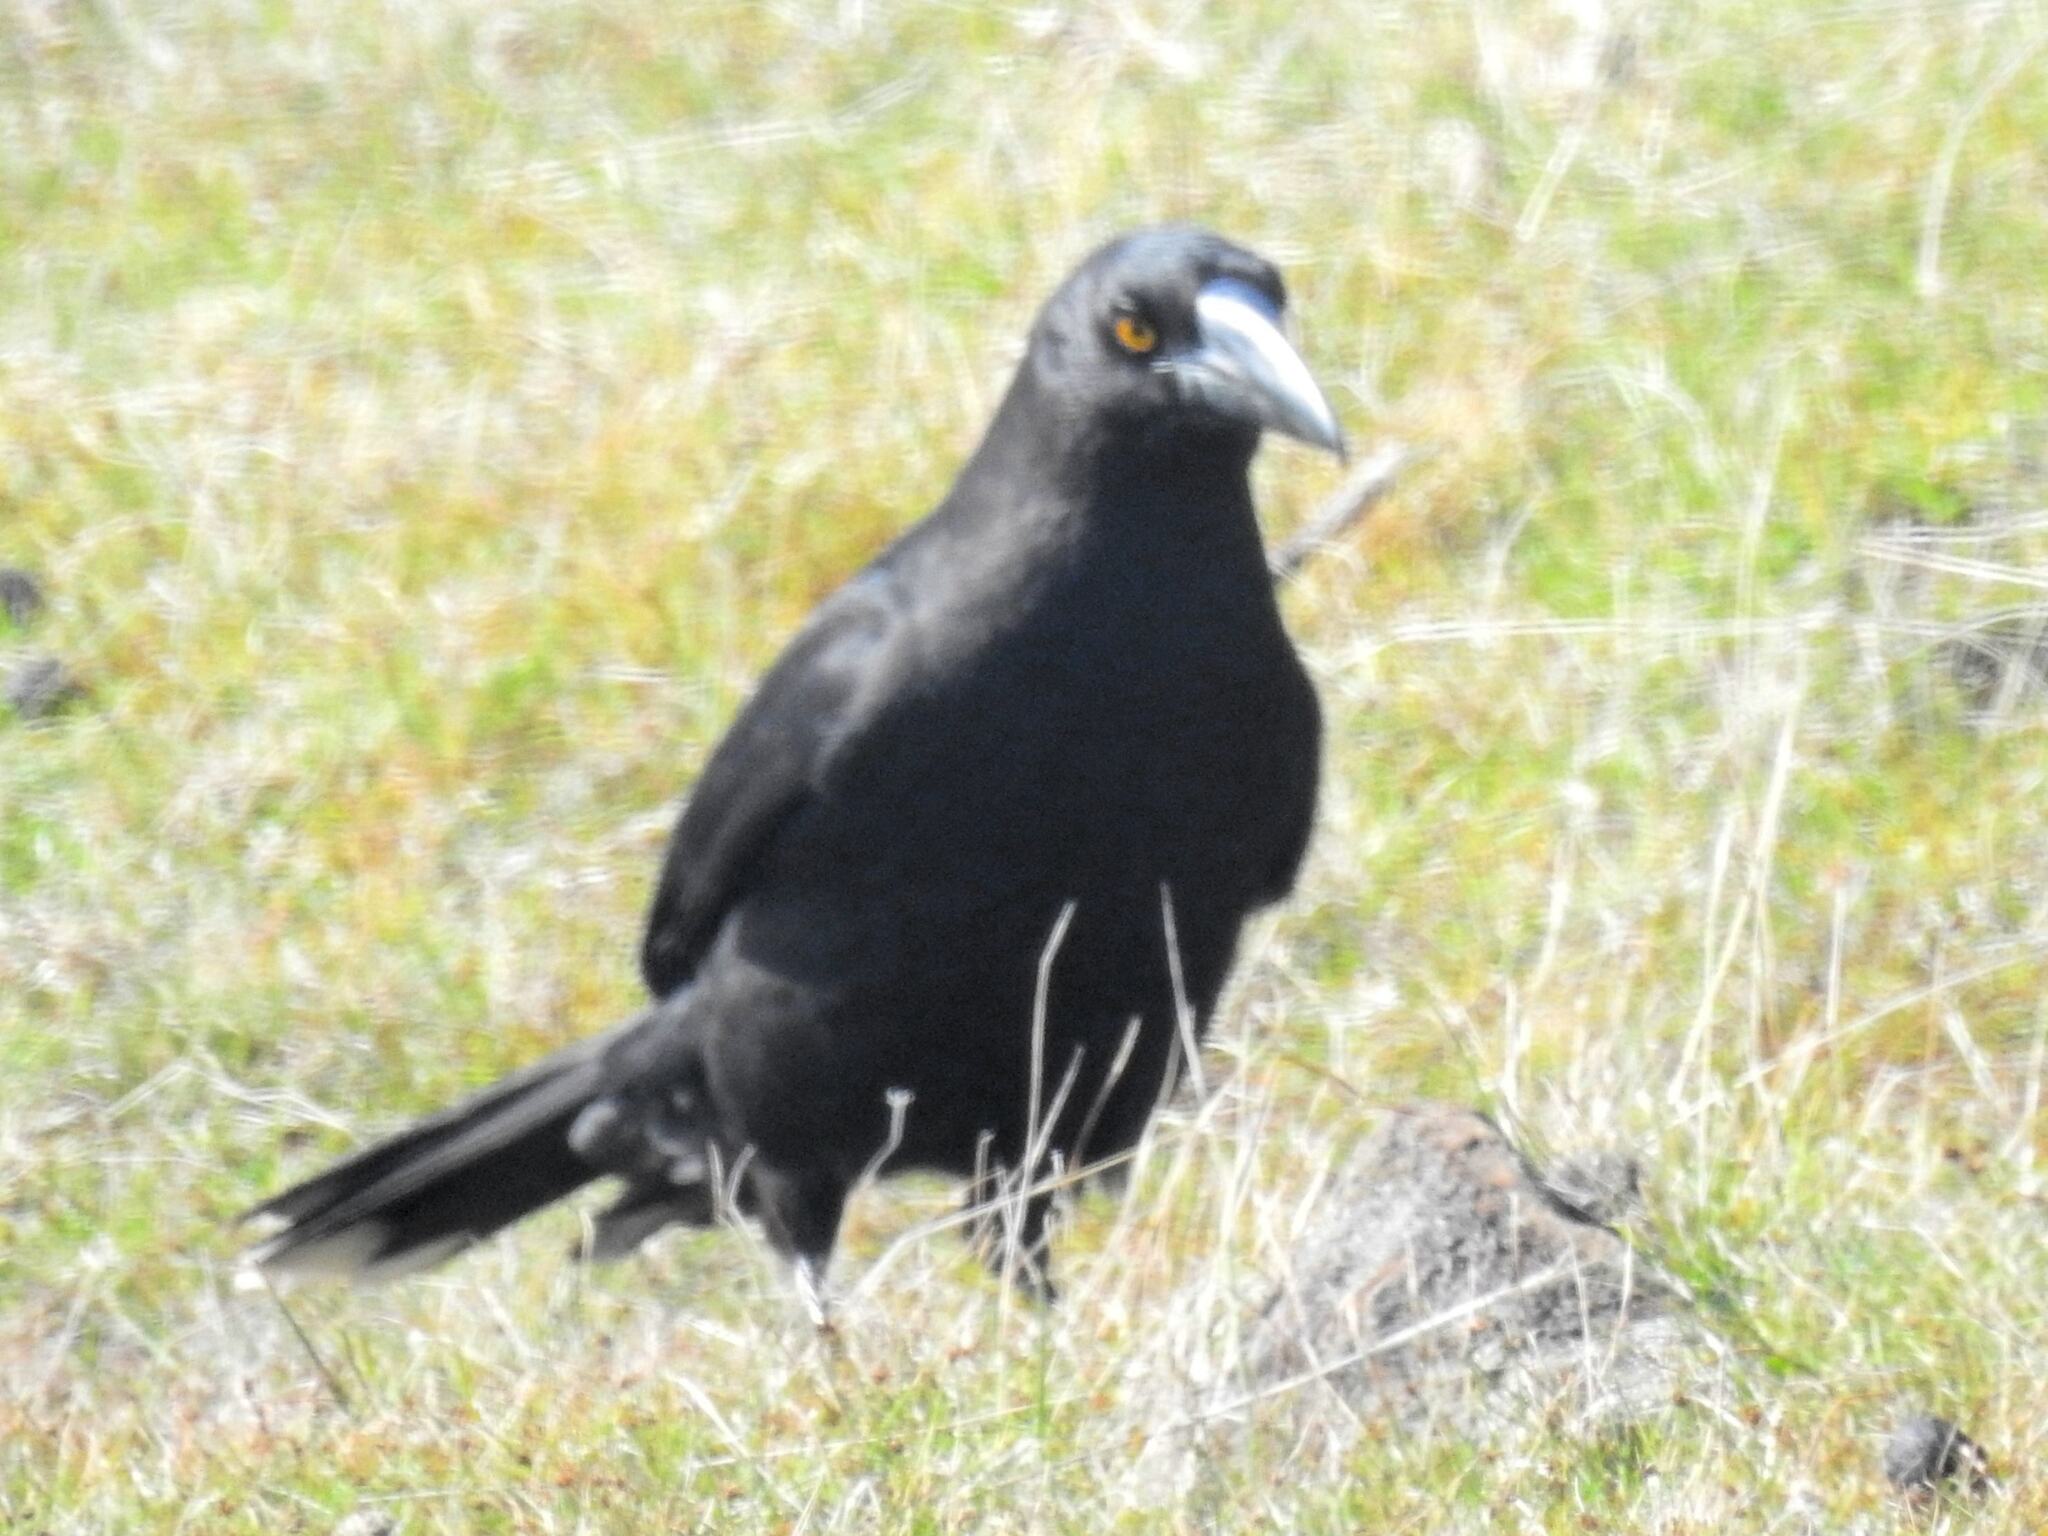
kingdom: Animalia
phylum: Chordata
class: Aves
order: Passeriformes
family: Cracticidae
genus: Strepera
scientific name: Strepera fuliginosa
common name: Black currawong
